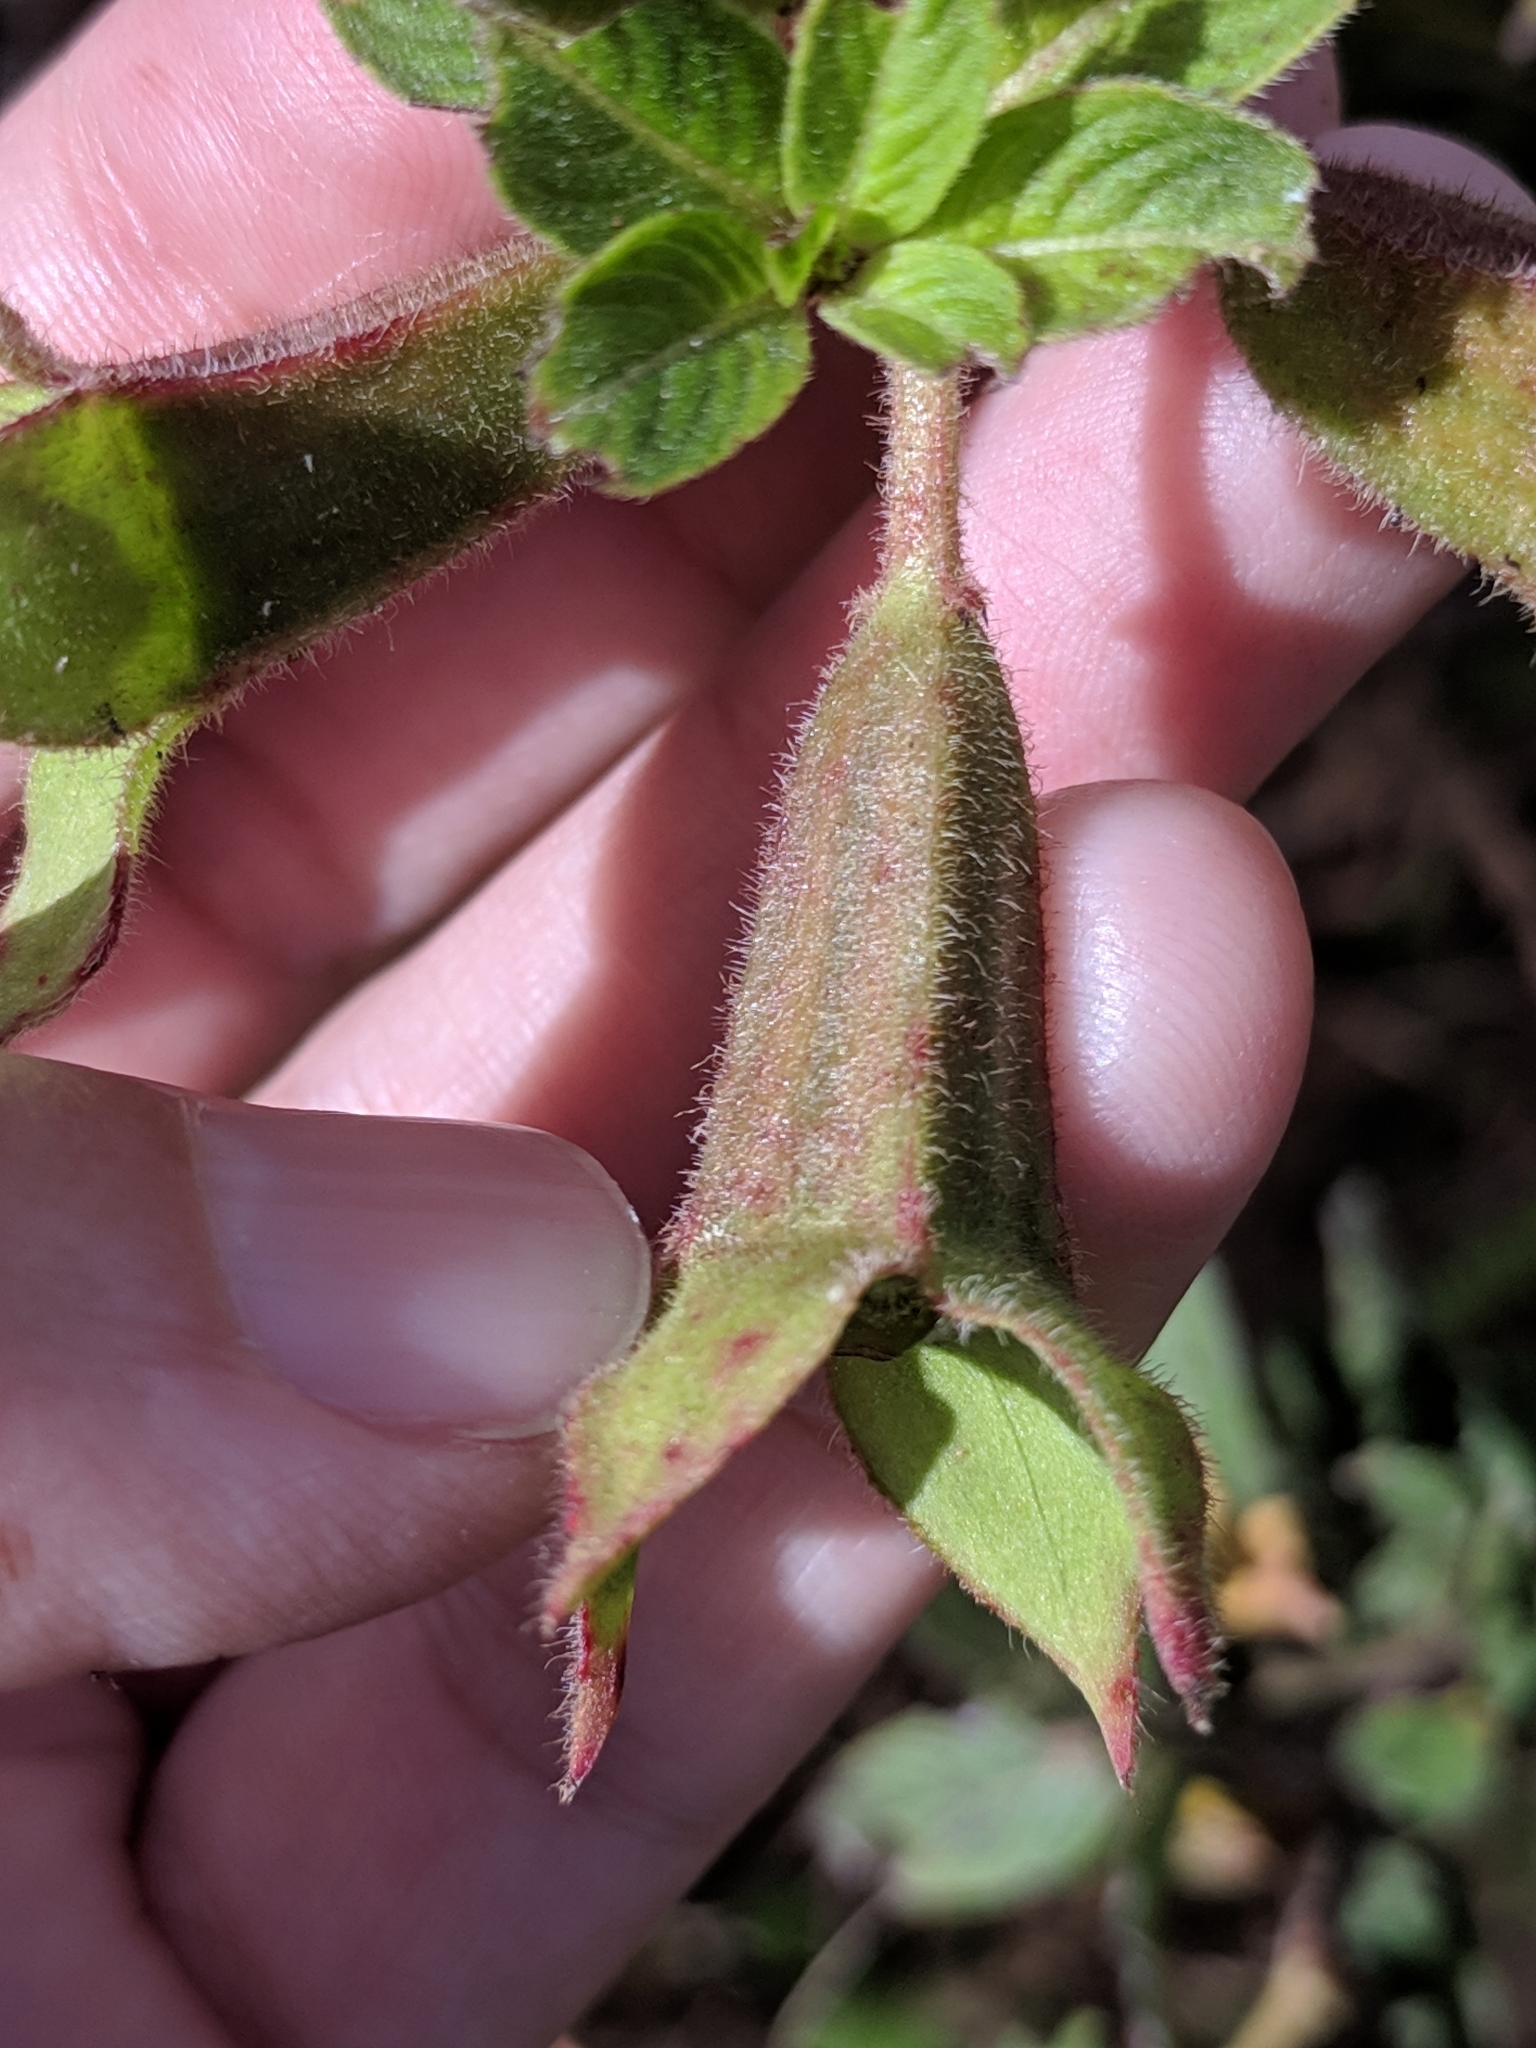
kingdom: Plantae
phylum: Tracheophyta
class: Magnoliopsida
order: Myrtales
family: Onagraceae
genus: Ludwigia
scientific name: Ludwigia peruviana
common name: Peruvian primrose-willow
